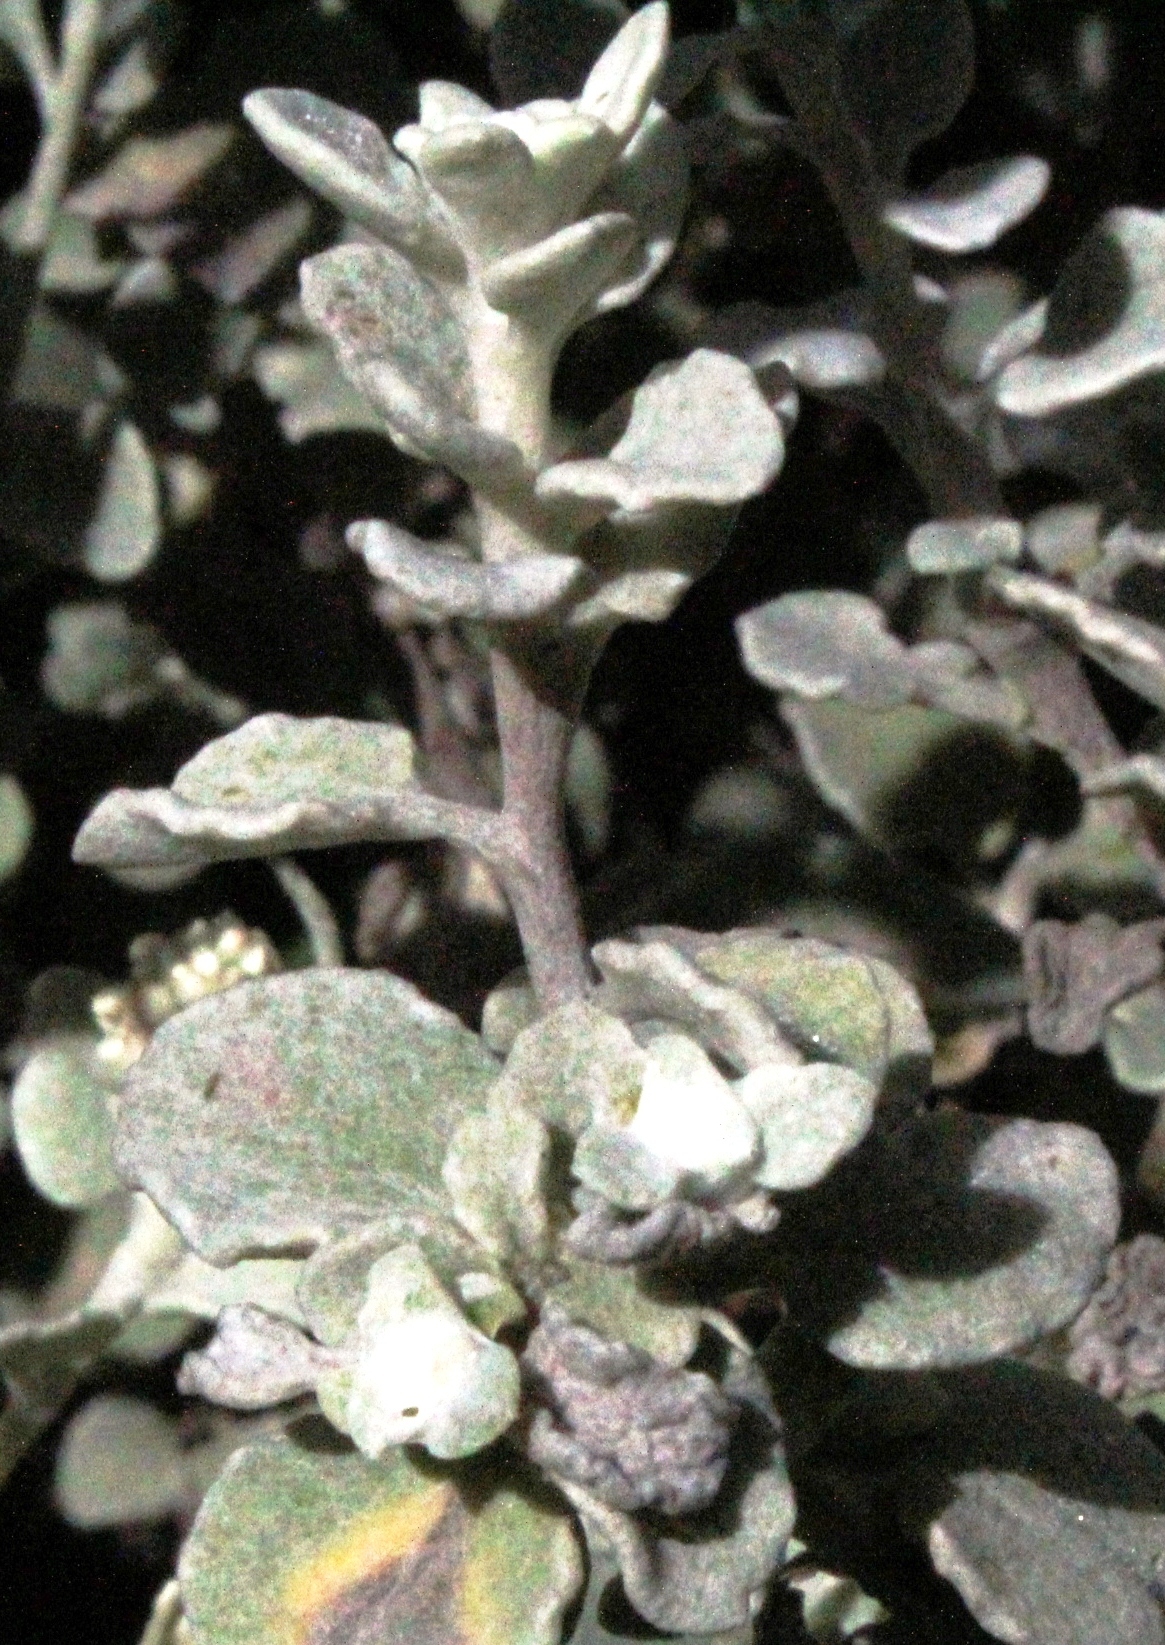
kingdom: Plantae
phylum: Tracheophyta
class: Magnoliopsida
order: Asterales
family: Asteraceae
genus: Helichrysum
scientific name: Helichrysum petiolare
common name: Licorice-plant
